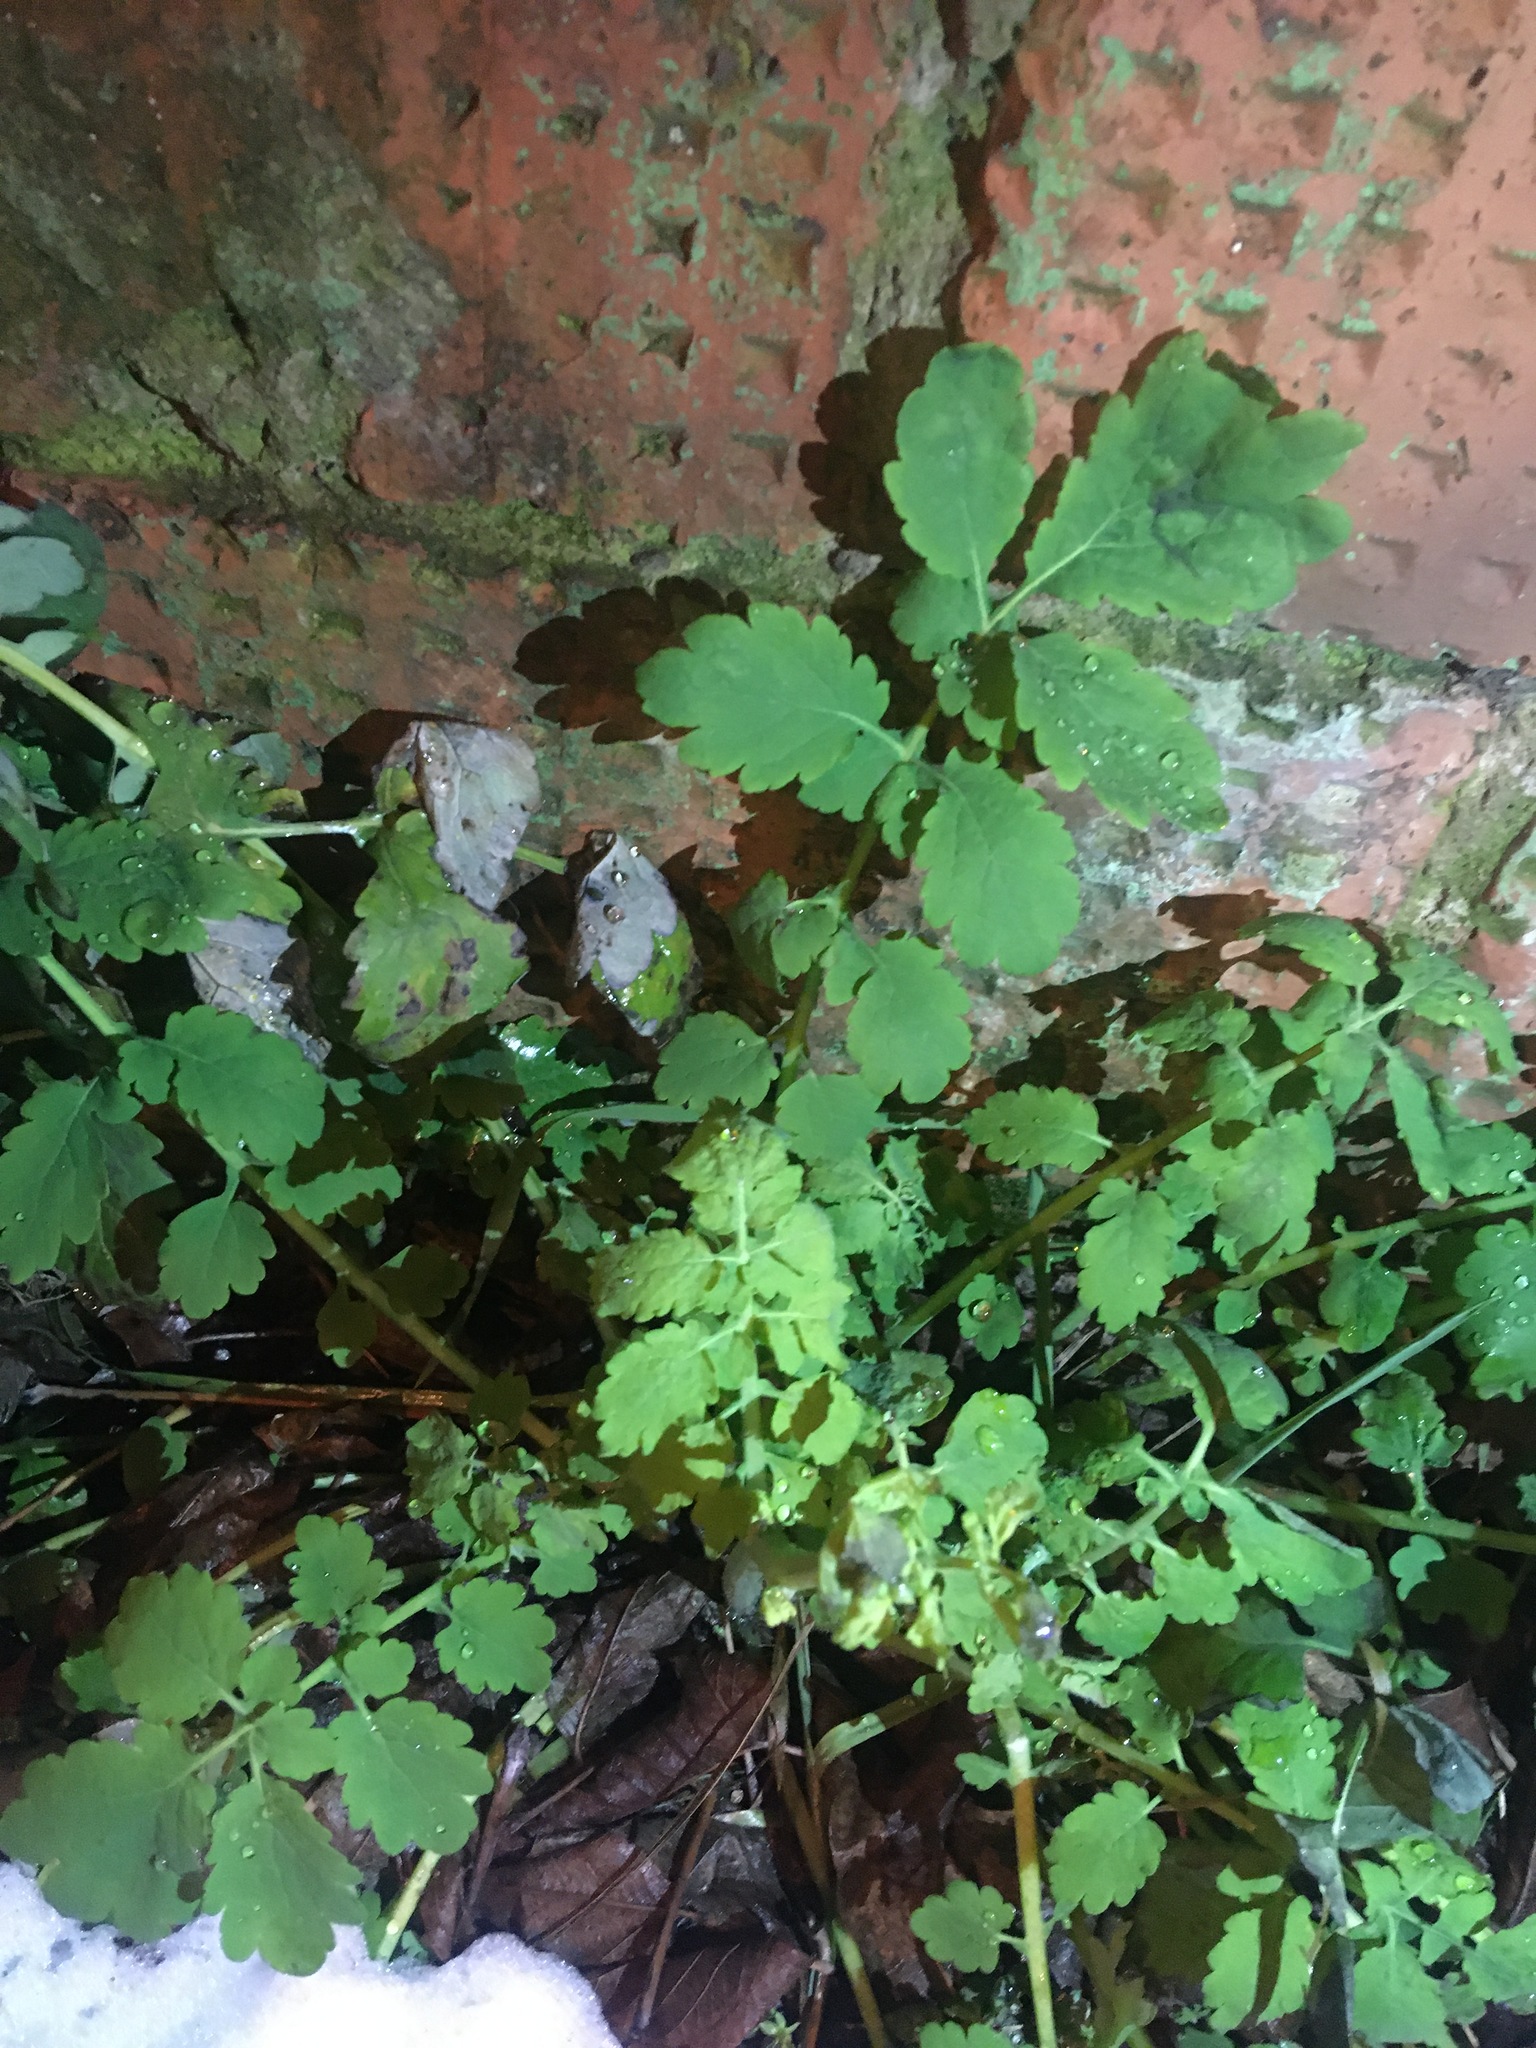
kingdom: Plantae
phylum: Tracheophyta
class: Magnoliopsida
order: Ranunculales
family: Papaveraceae
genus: Chelidonium
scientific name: Chelidonium majus
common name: Greater celandine
